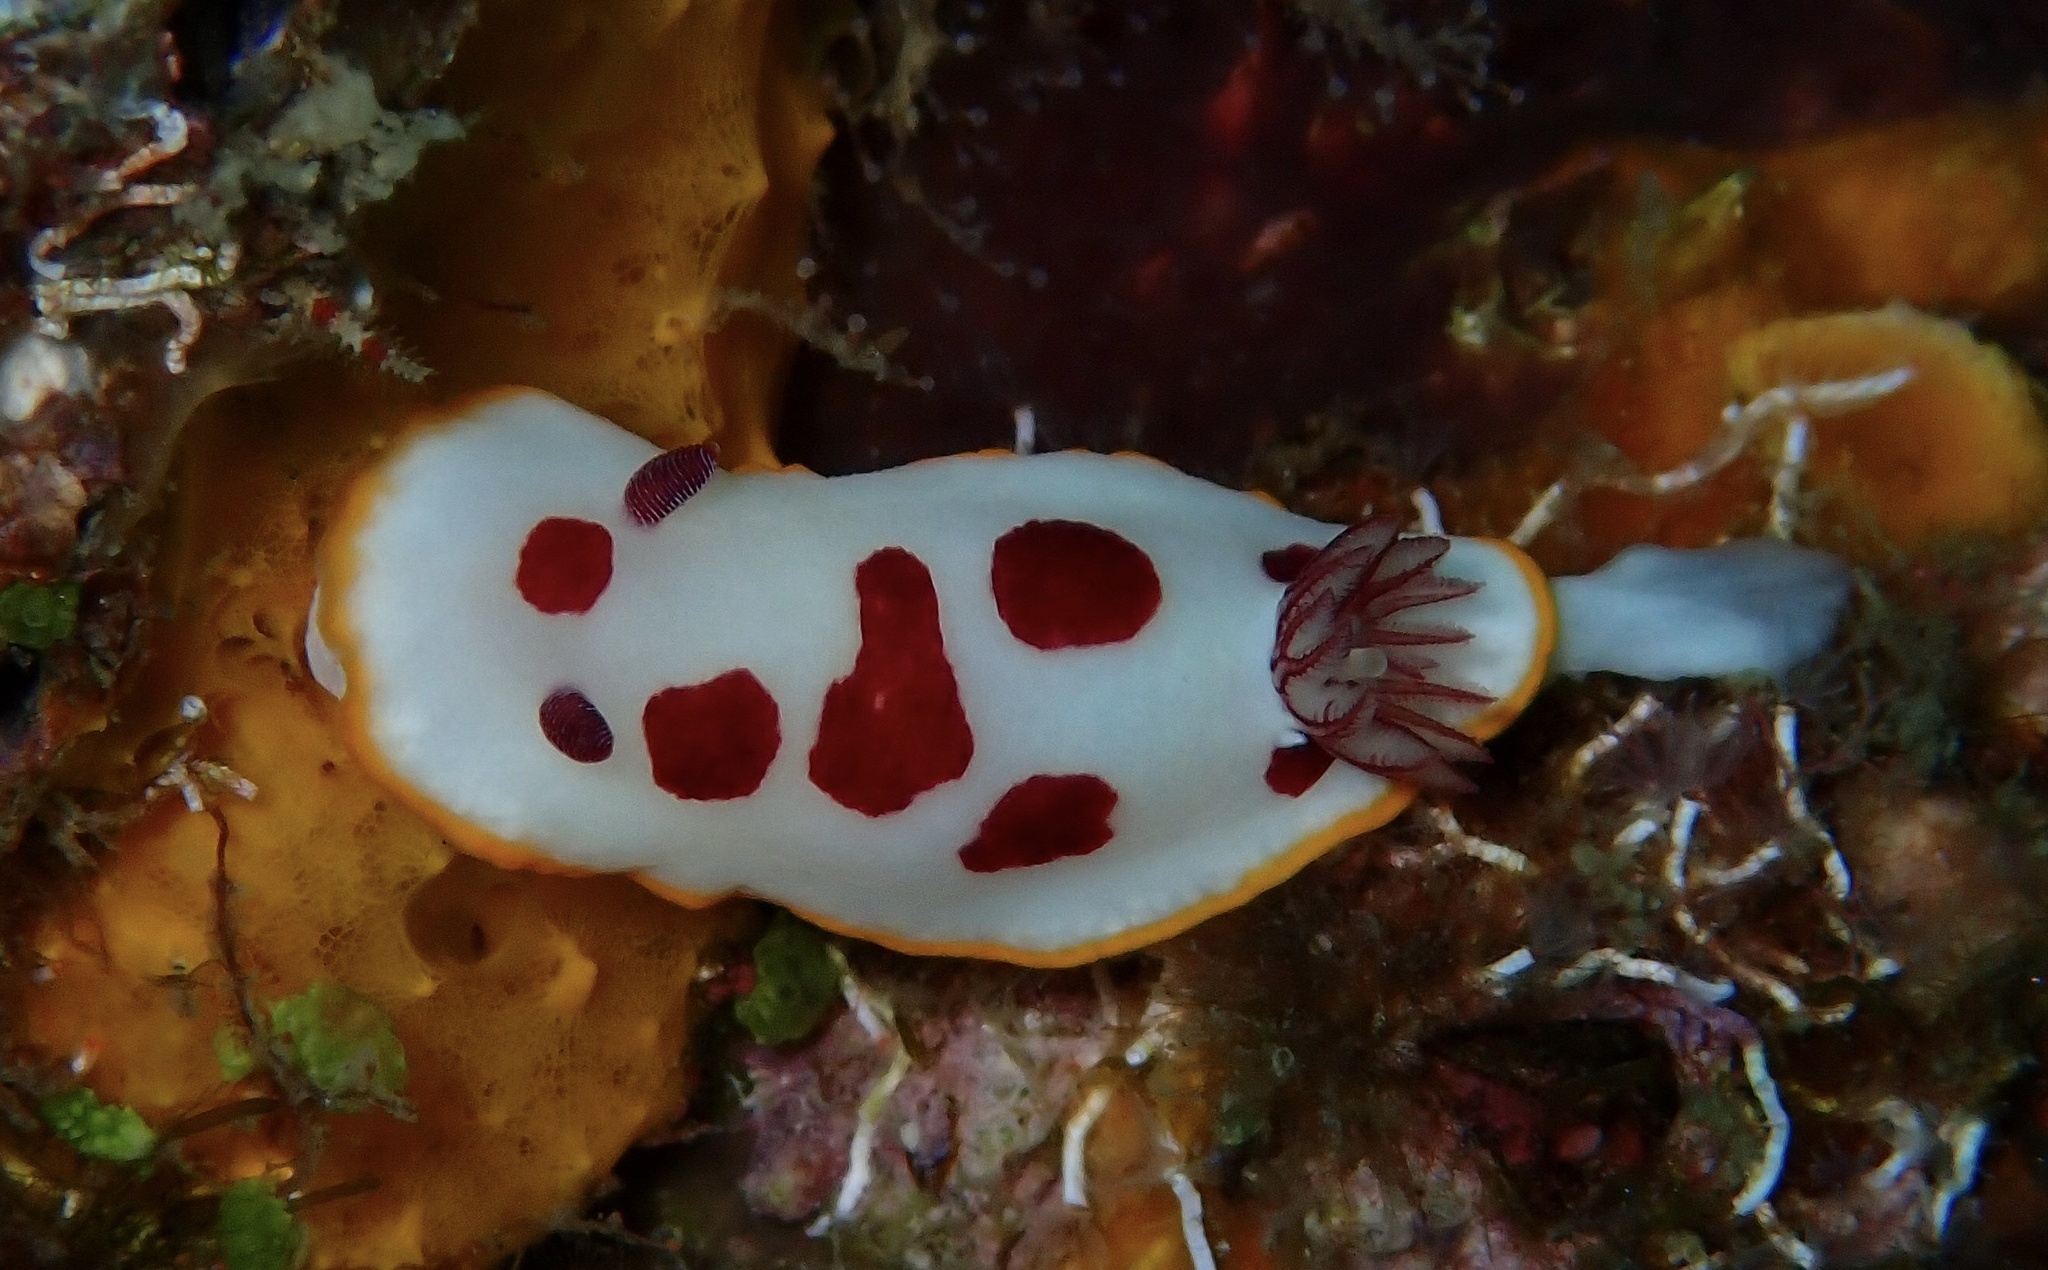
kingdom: Animalia
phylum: Mollusca
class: Gastropoda
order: Nudibranchia
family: Chromodorididae
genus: Goniobranchus
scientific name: Goniobranchus splendidus
